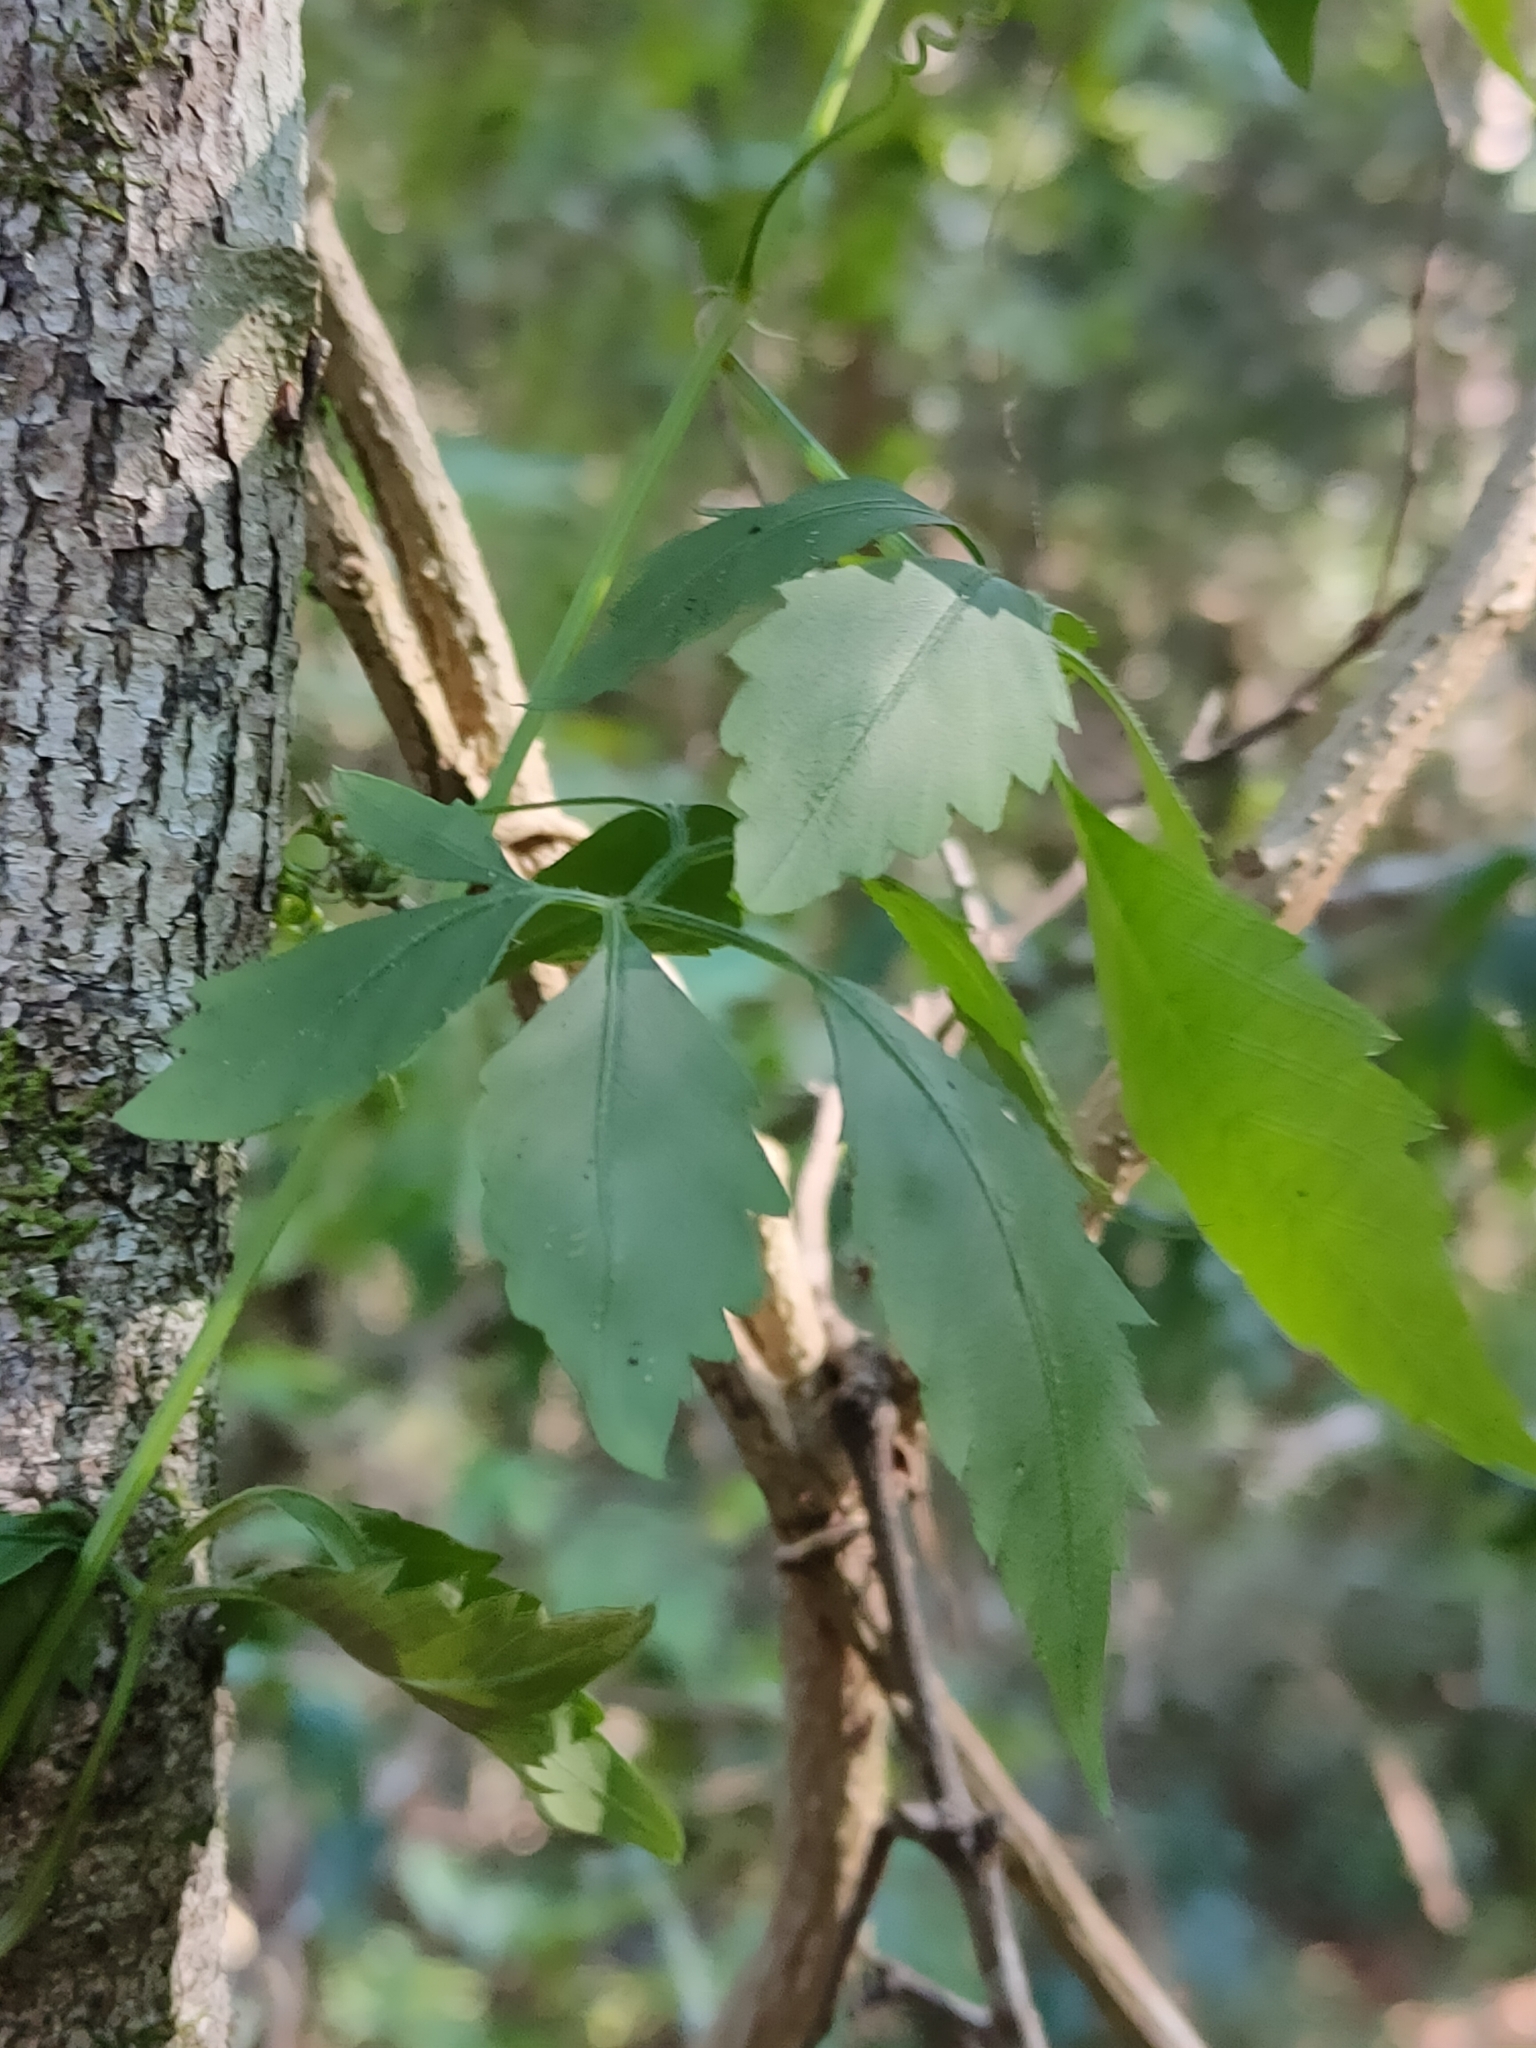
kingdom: Plantae
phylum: Tracheophyta
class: Magnoliopsida
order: Vitales
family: Vitaceae
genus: Causonis
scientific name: Causonis clematidea
